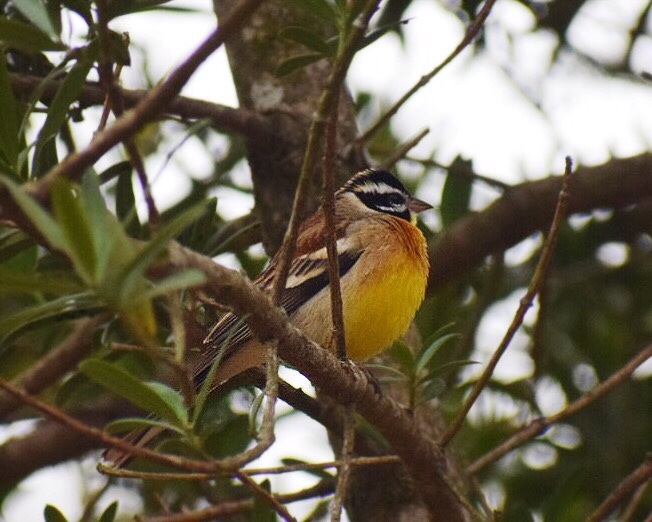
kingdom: Animalia
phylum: Chordata
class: Aves
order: Passeriformes
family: Emberizidae
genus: Emberiza
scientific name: Emberiza flaviventris
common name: Golden-breasted bunting
